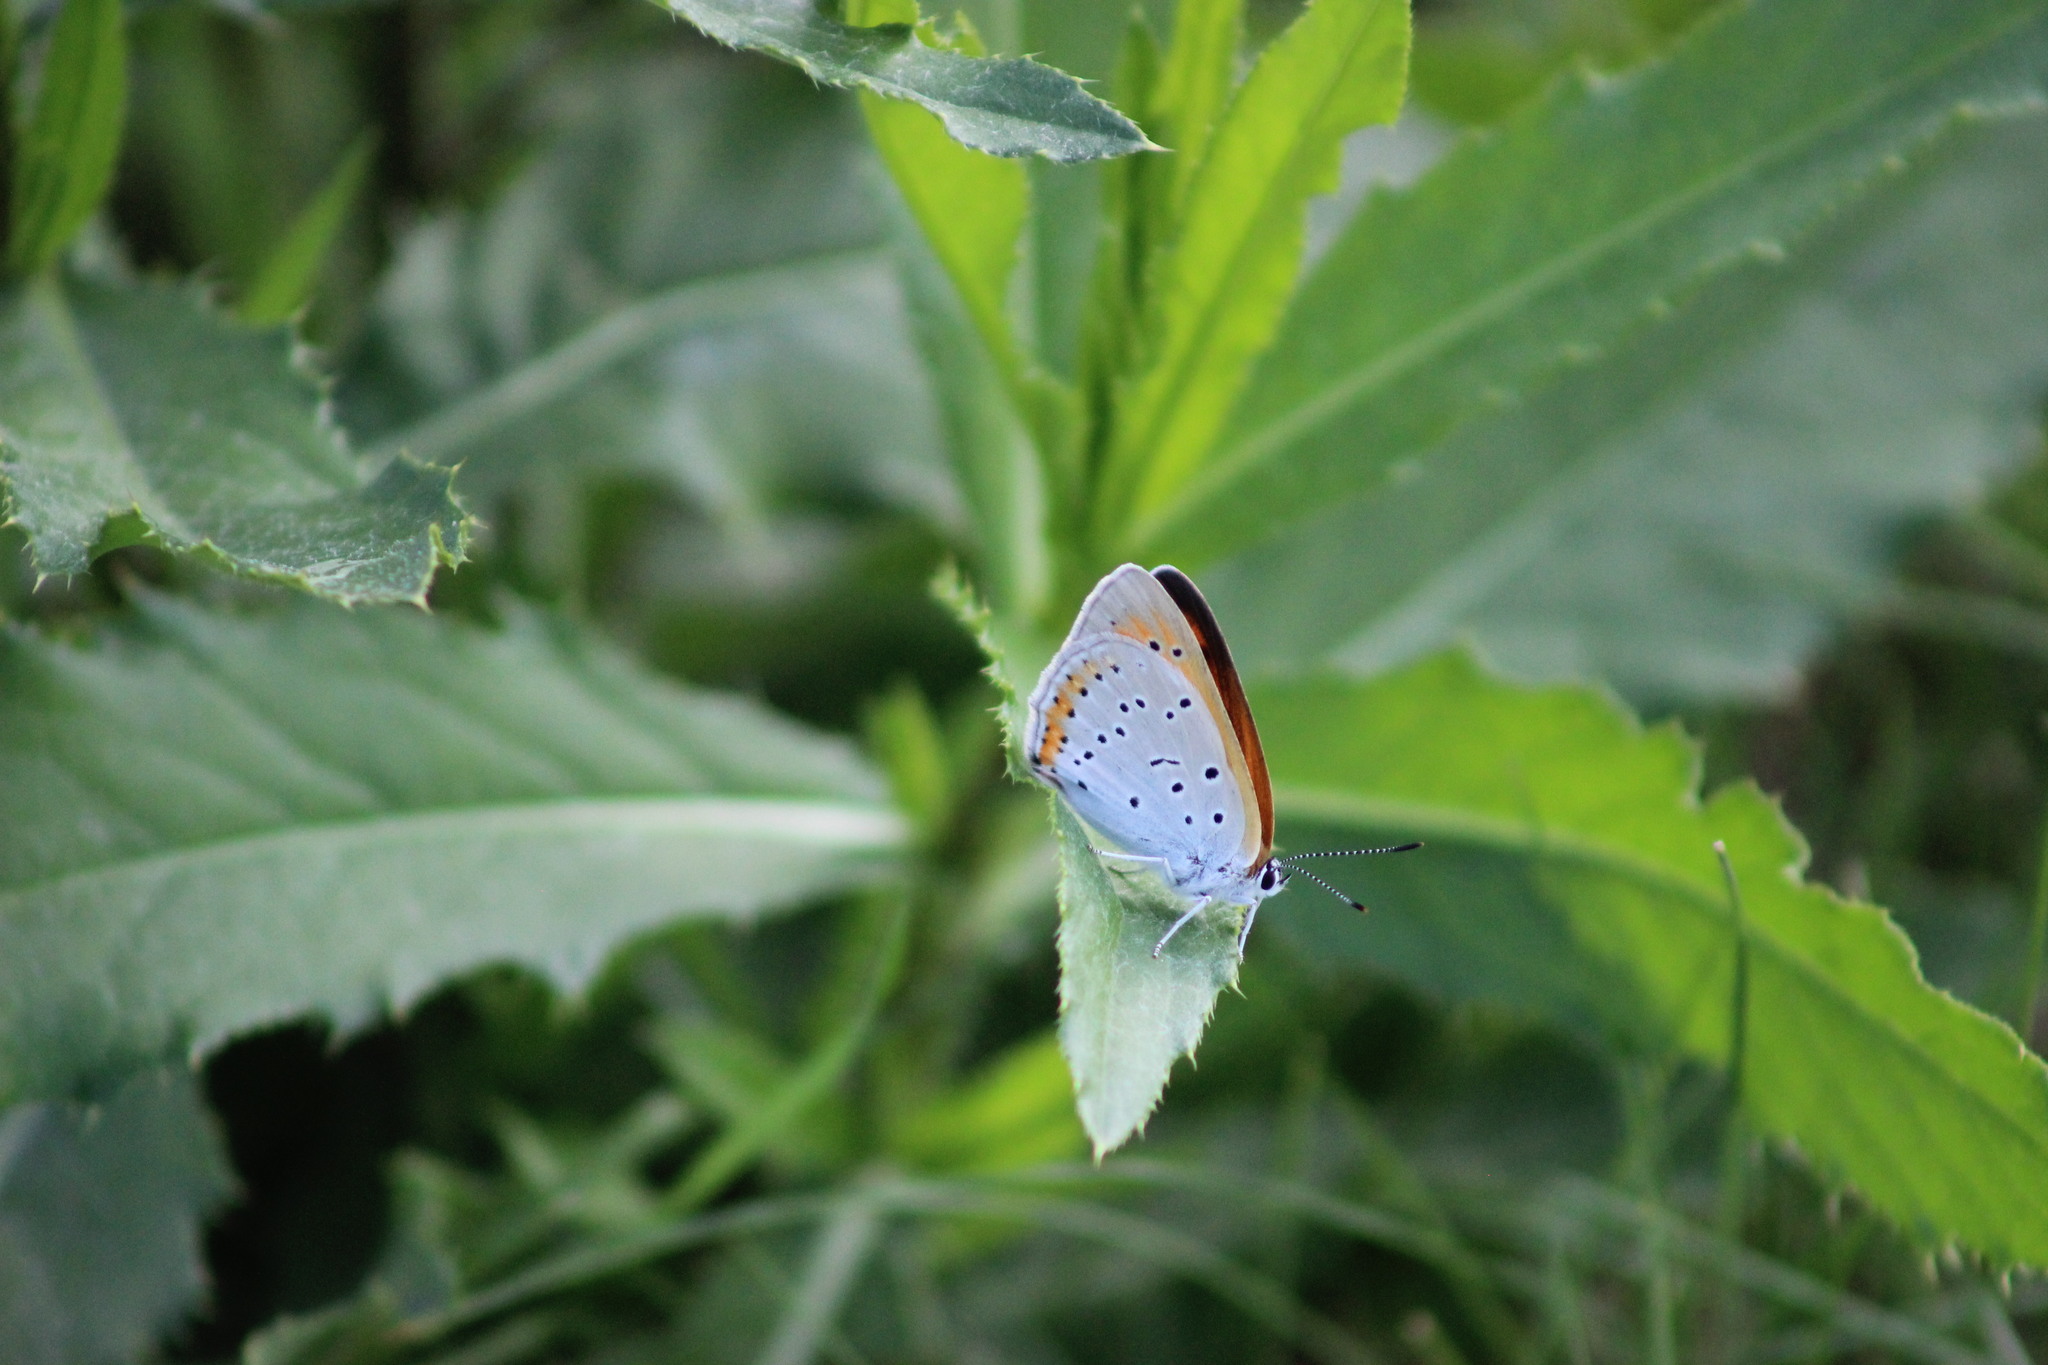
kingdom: Animalia
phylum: Arthropoda
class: Insecta
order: Lepidoptera
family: Lycaenidae
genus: Lycaena
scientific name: Lycaena dispar
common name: Large copper
